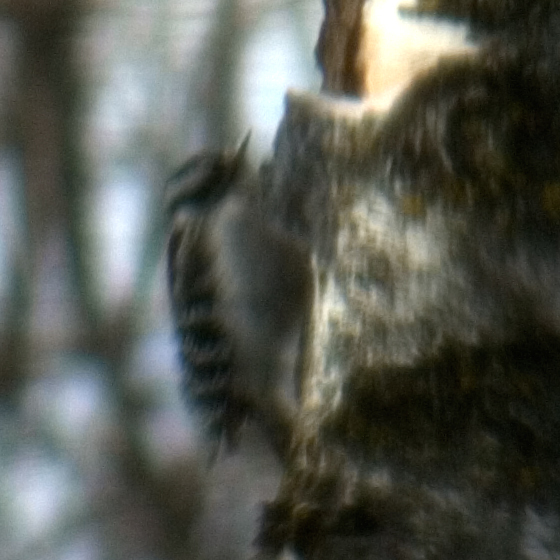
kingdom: Animalia
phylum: Chordata
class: Aves
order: Piciformes
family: Picidae
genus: Dryobates
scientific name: Dryobates pubescens
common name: Downy woodpecker
